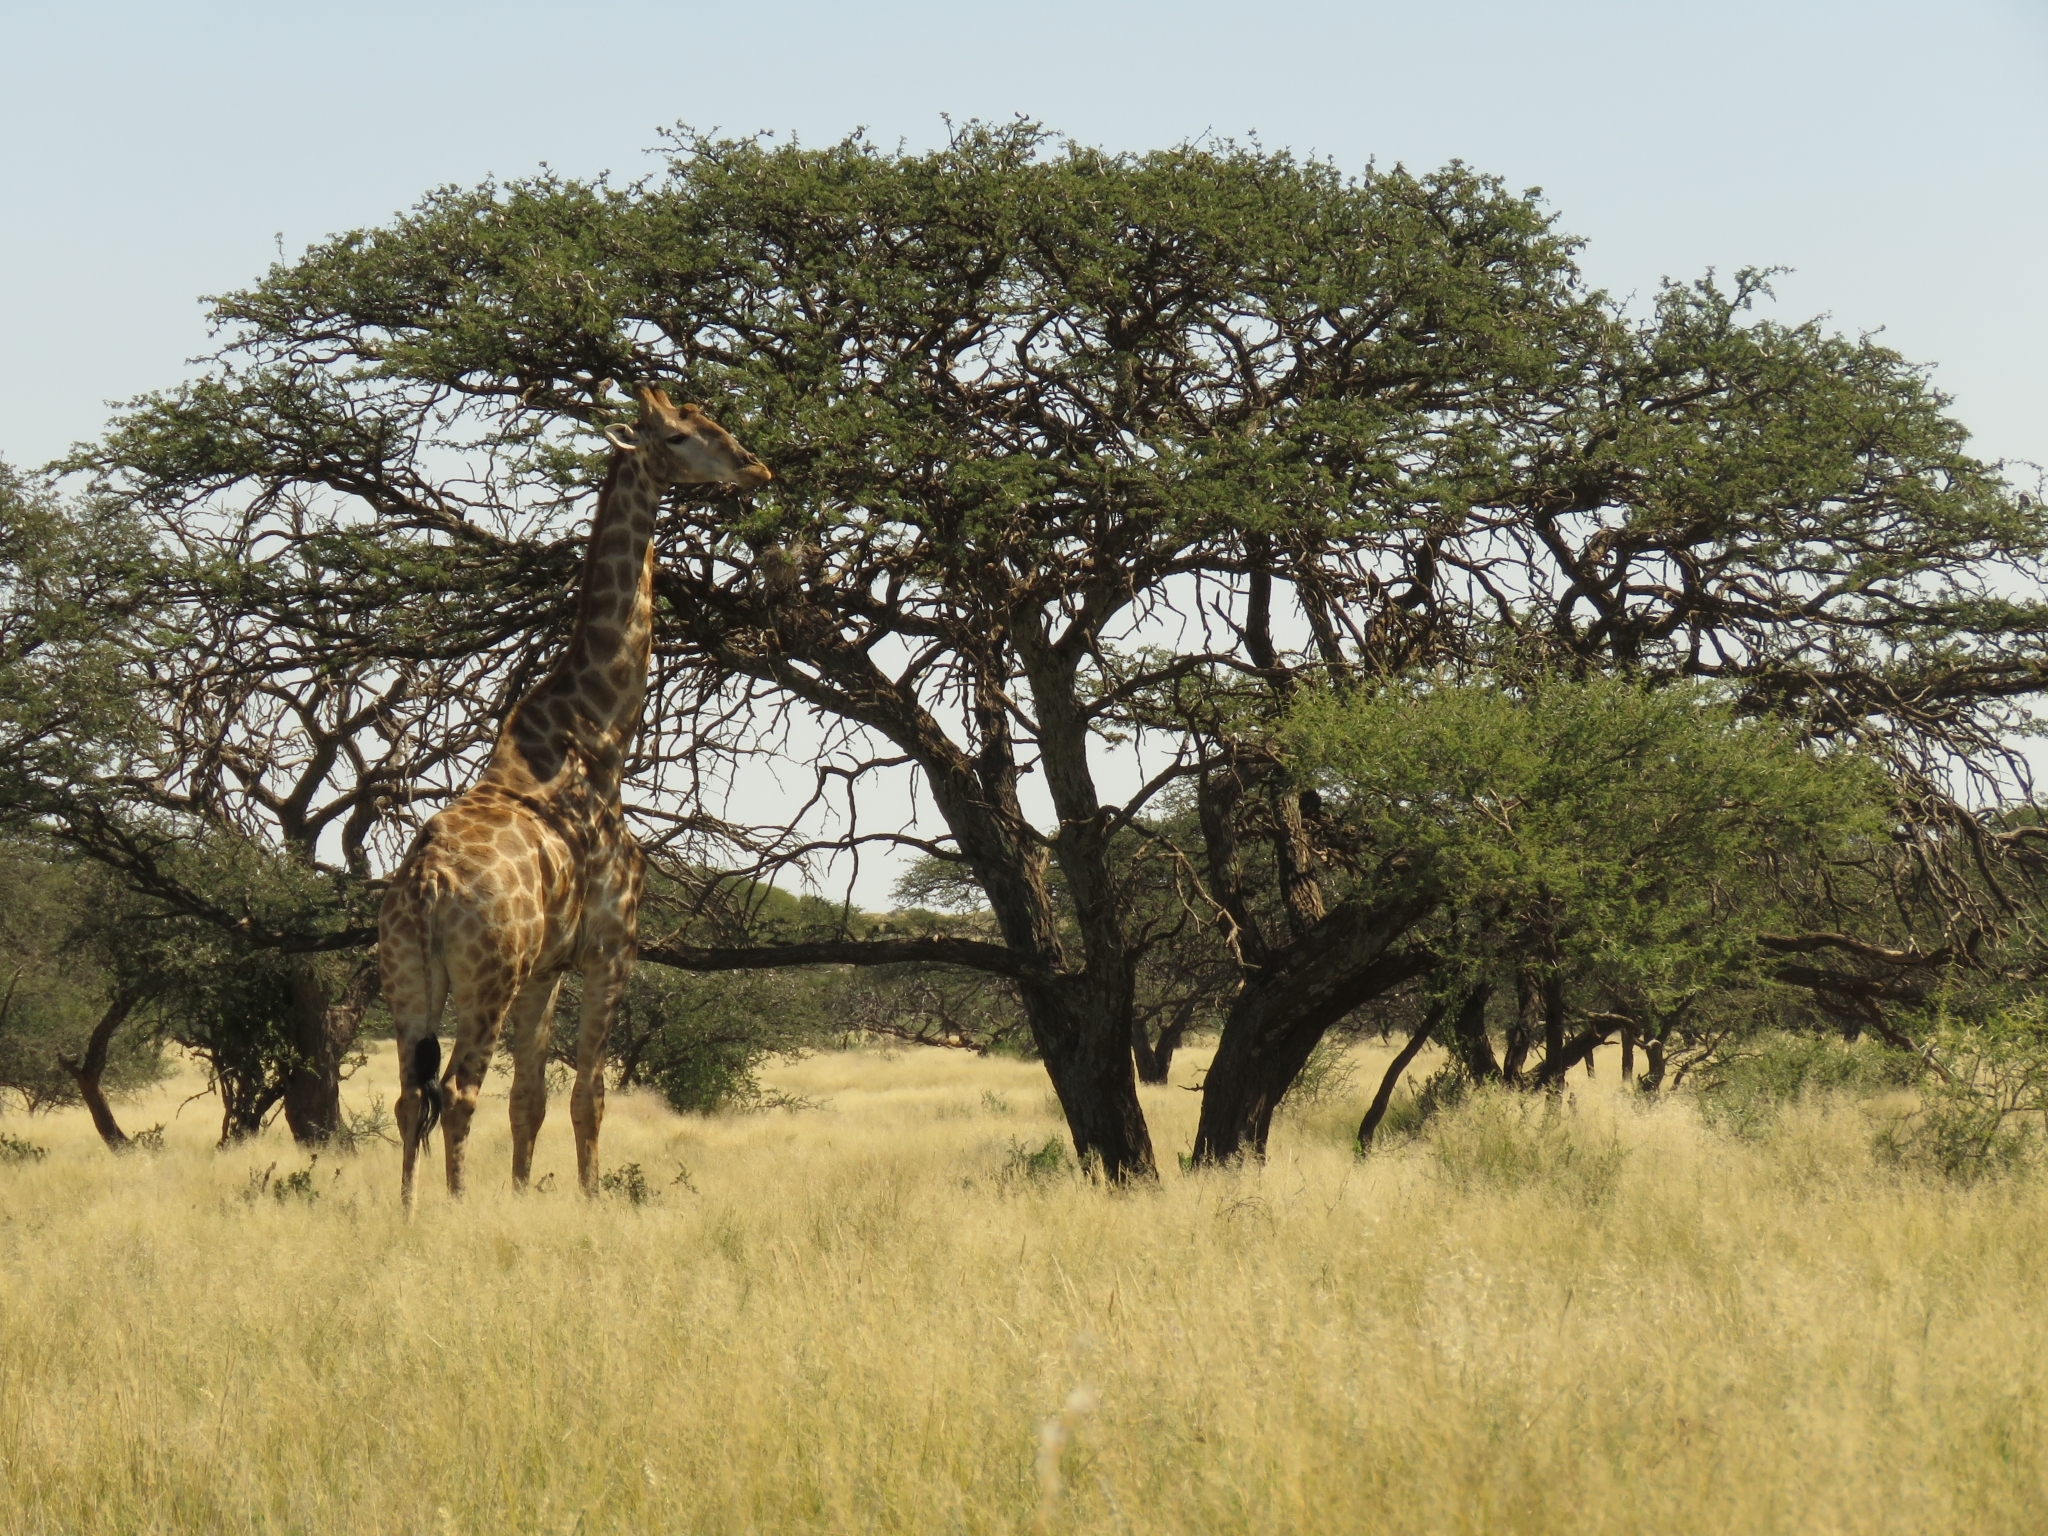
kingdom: Animalia
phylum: Chordata
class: Mammalia
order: Artiodactyla
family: Giraffidae
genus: Giraffa
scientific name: Giraffa giraffa
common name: Southern giraffe
